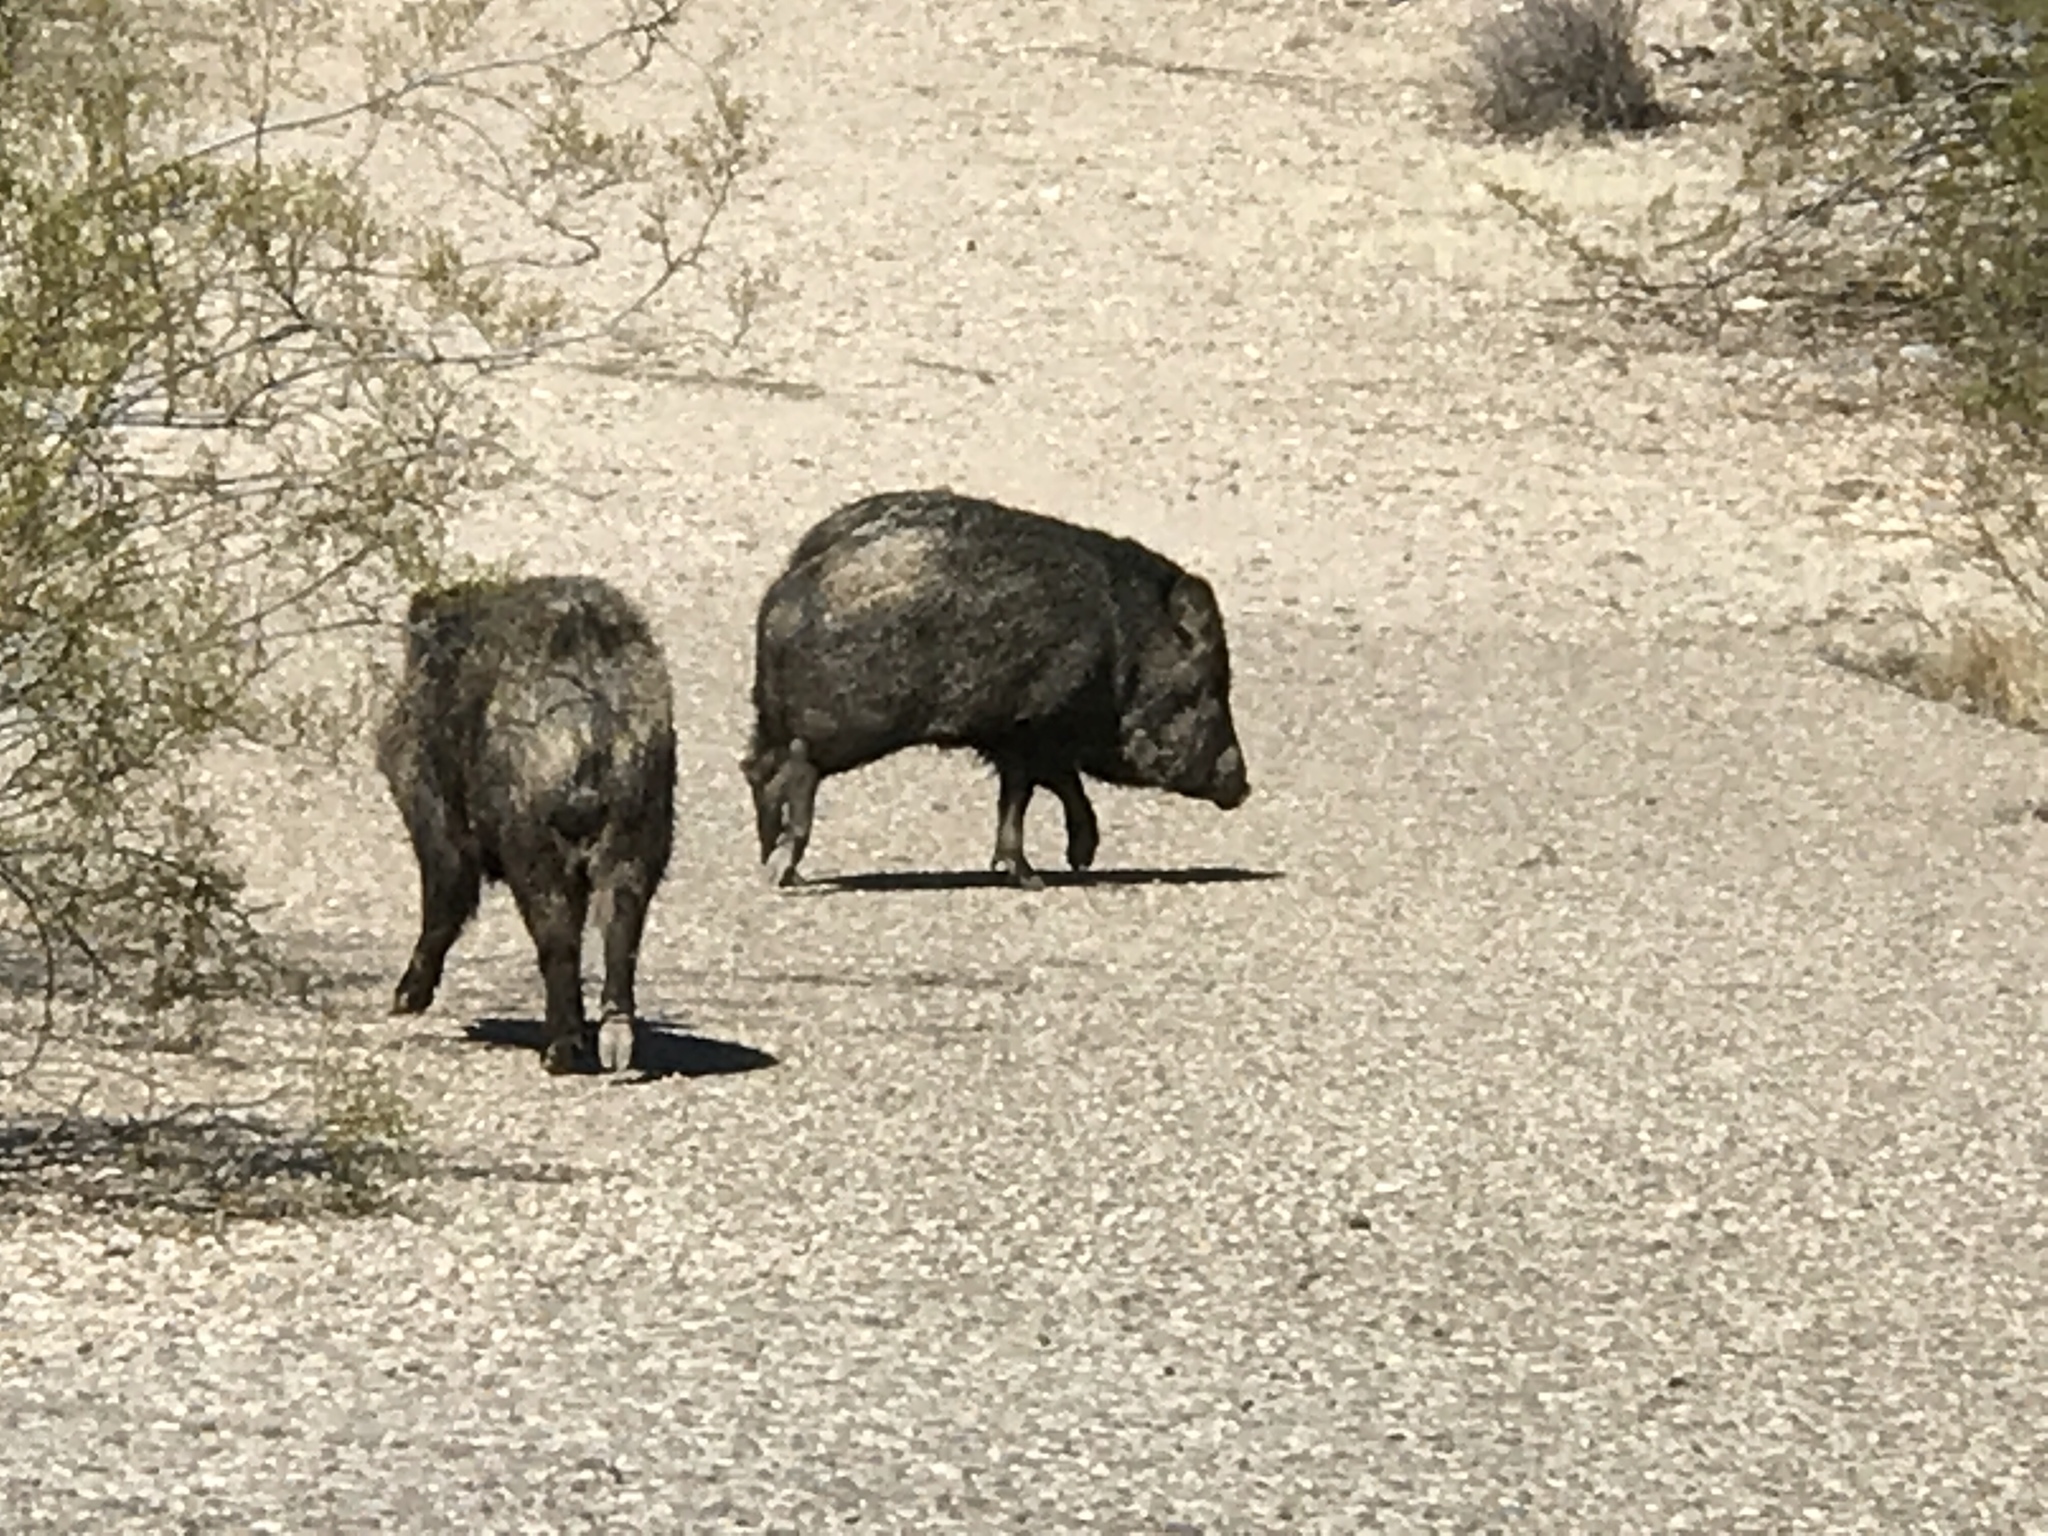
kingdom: Animalia
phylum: Chordata
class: Mammalia
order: Artiodactyla
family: Tayassuidae
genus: Pecari
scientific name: Pecari tajacu
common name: Collared peccary
